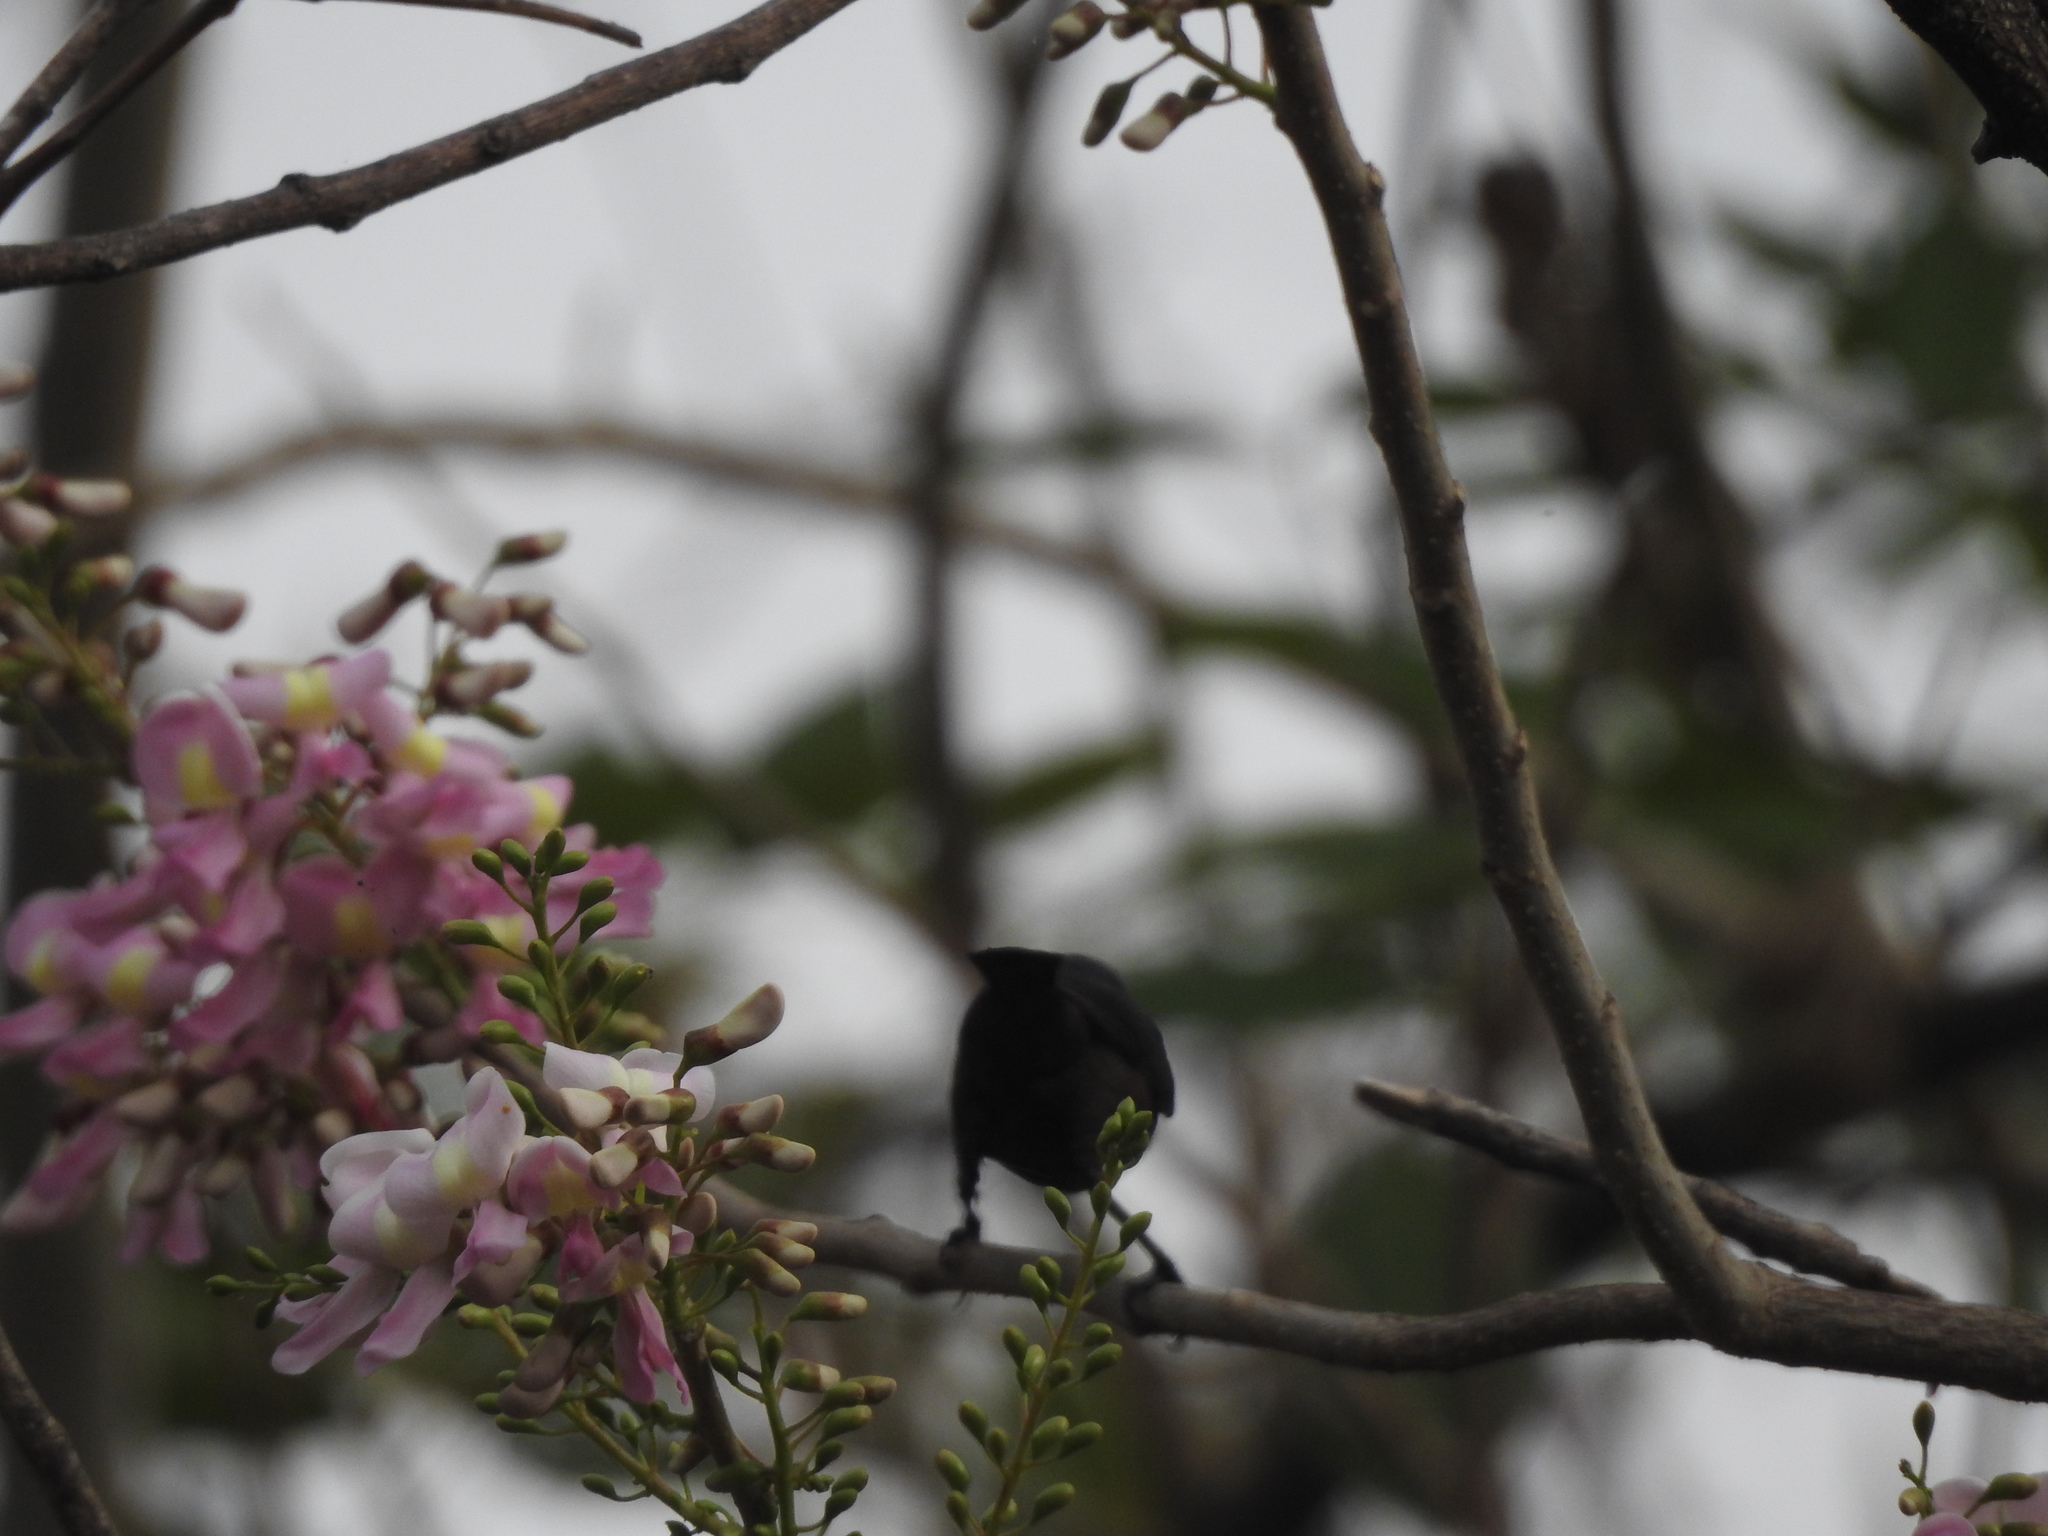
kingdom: Animalia
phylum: Chordata
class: Aves
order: Passeriformes
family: Nectariniidae
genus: Cinnyris
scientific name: Cinnyris lotenius
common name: Loten's sunbird
